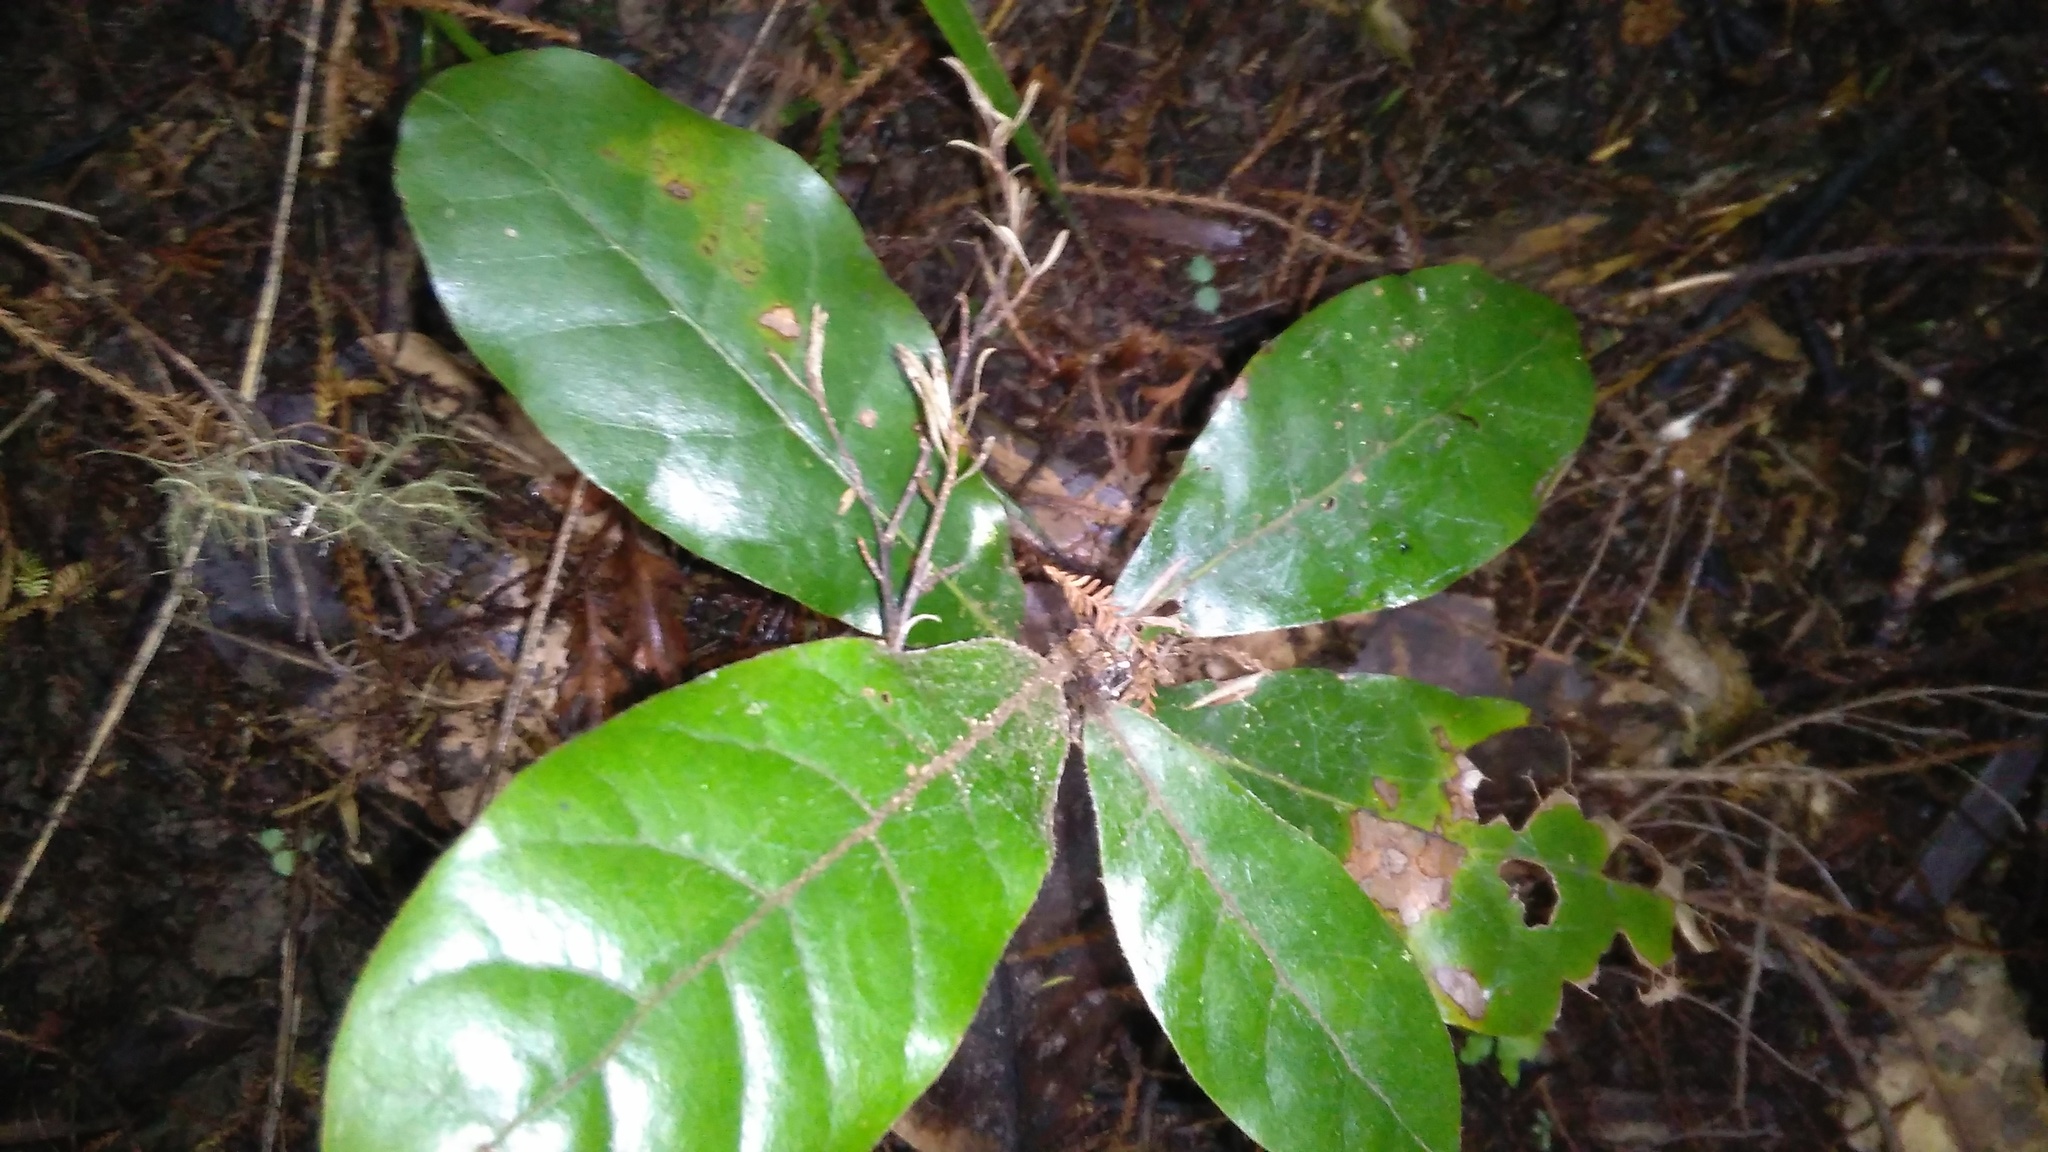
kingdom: Plantae
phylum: Tracheophyta
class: Magnoliopsida
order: Laurales
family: Lauraceae
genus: Beilschmiedia
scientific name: Beilschmiedia tarairi
